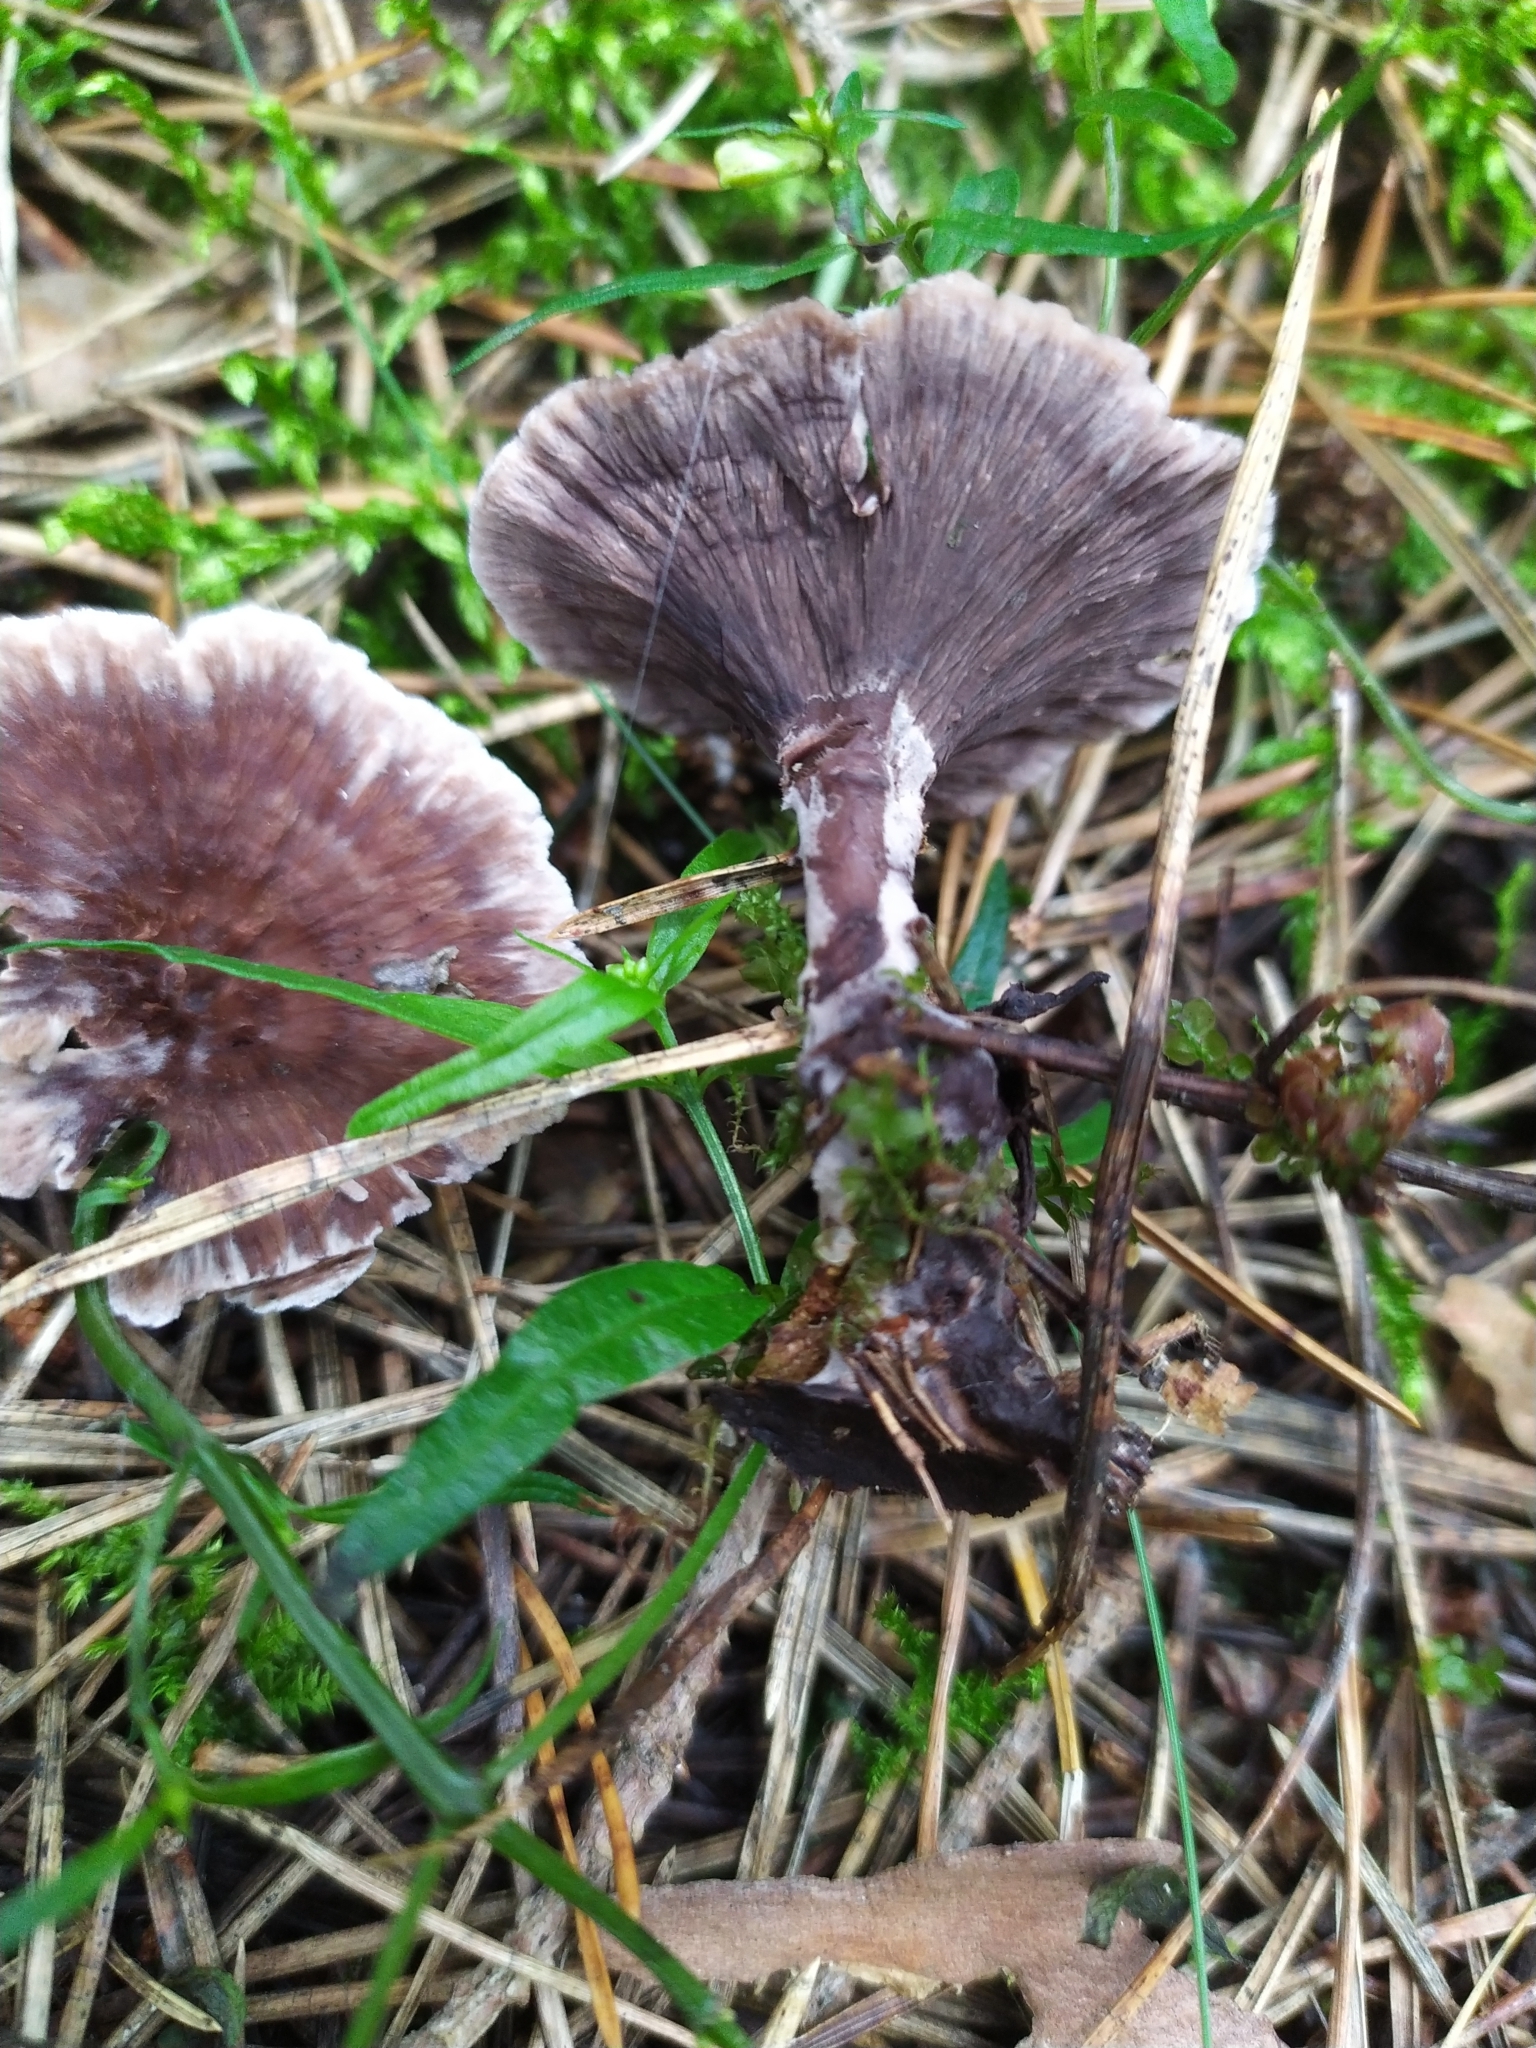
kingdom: Fungi
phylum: Basidiomycota
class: Agaricomycetes
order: Thelephorales
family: Thelephoraceae
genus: Thelephora
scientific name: Thelephora caryophyllea
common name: Carnation earthfan
